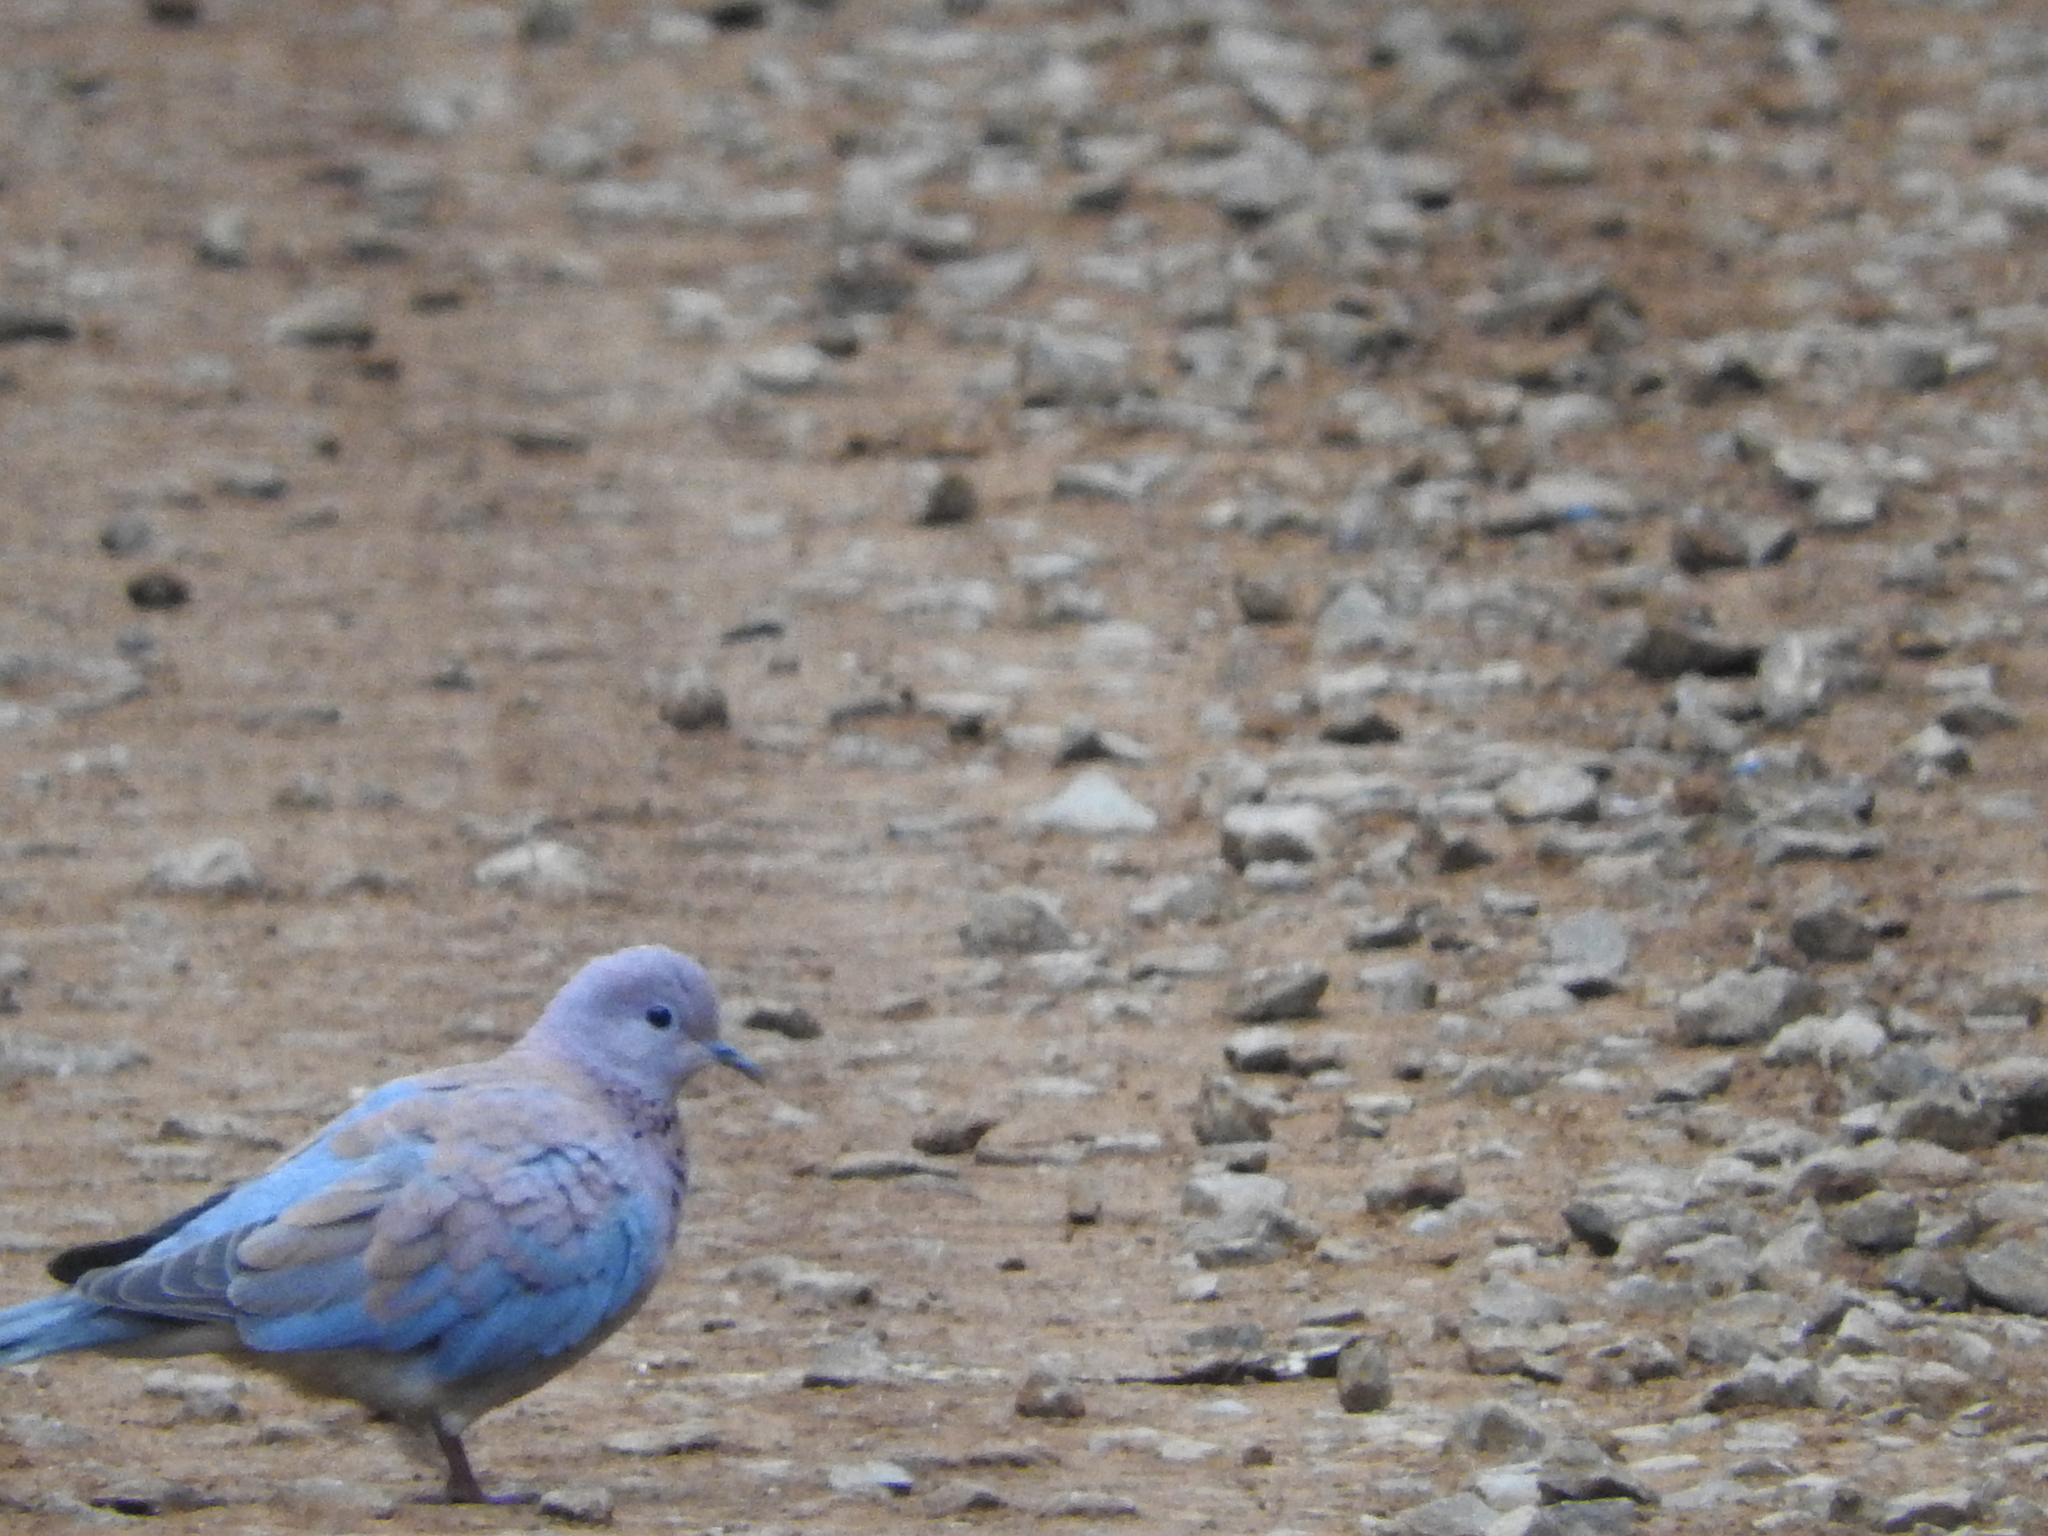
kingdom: Animalia
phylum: Chordata
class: Aves
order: Columbiformes
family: Columbidae
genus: Spilopelia
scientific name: Spilopelia senegalensis
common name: Laughing dove
